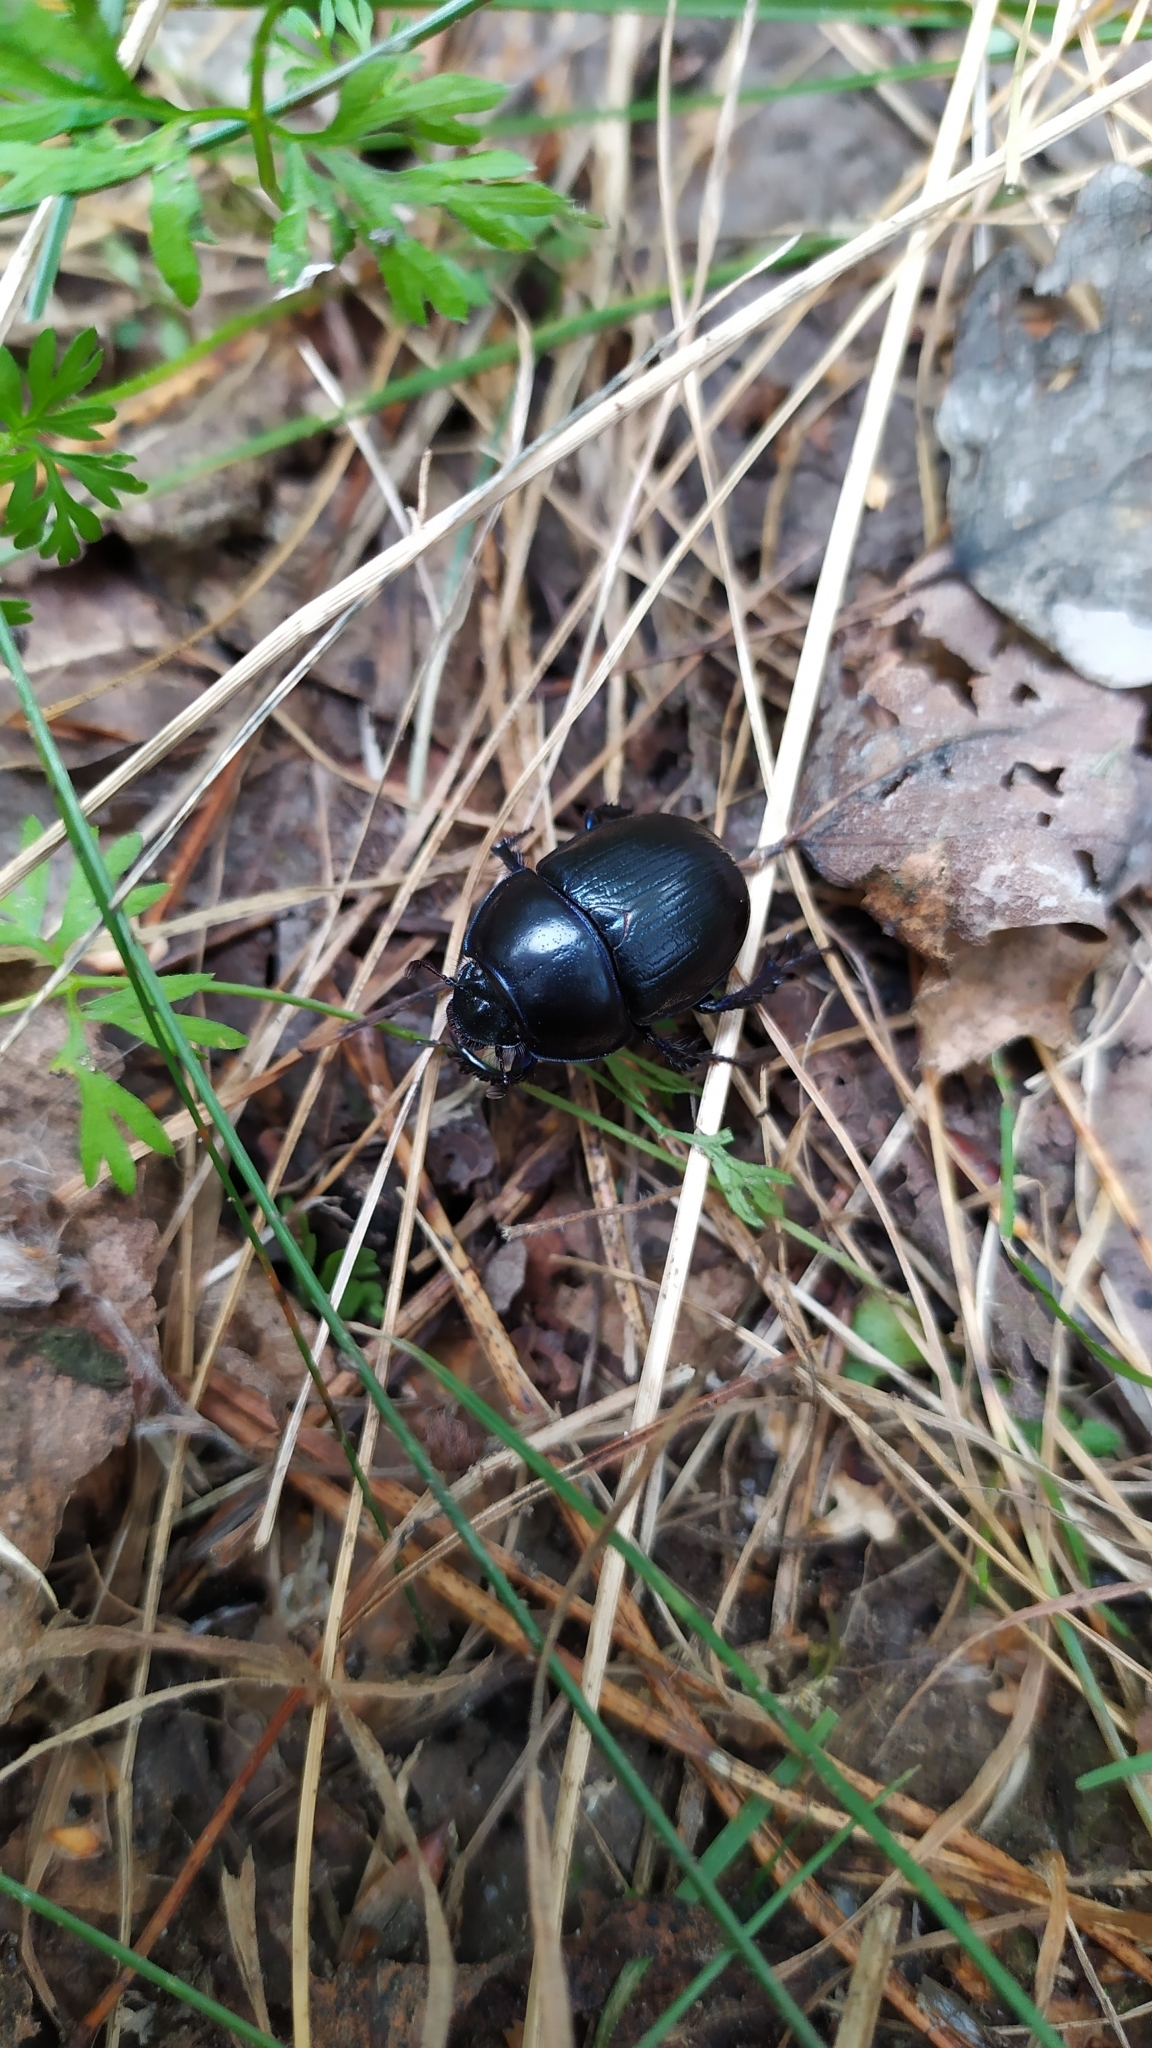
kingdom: Animalia
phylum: Arthropoda
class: Insecta
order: Coleoptera
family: Geotrupidae
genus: Anoplotrupes
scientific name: Anoplotrupes stercorosus
